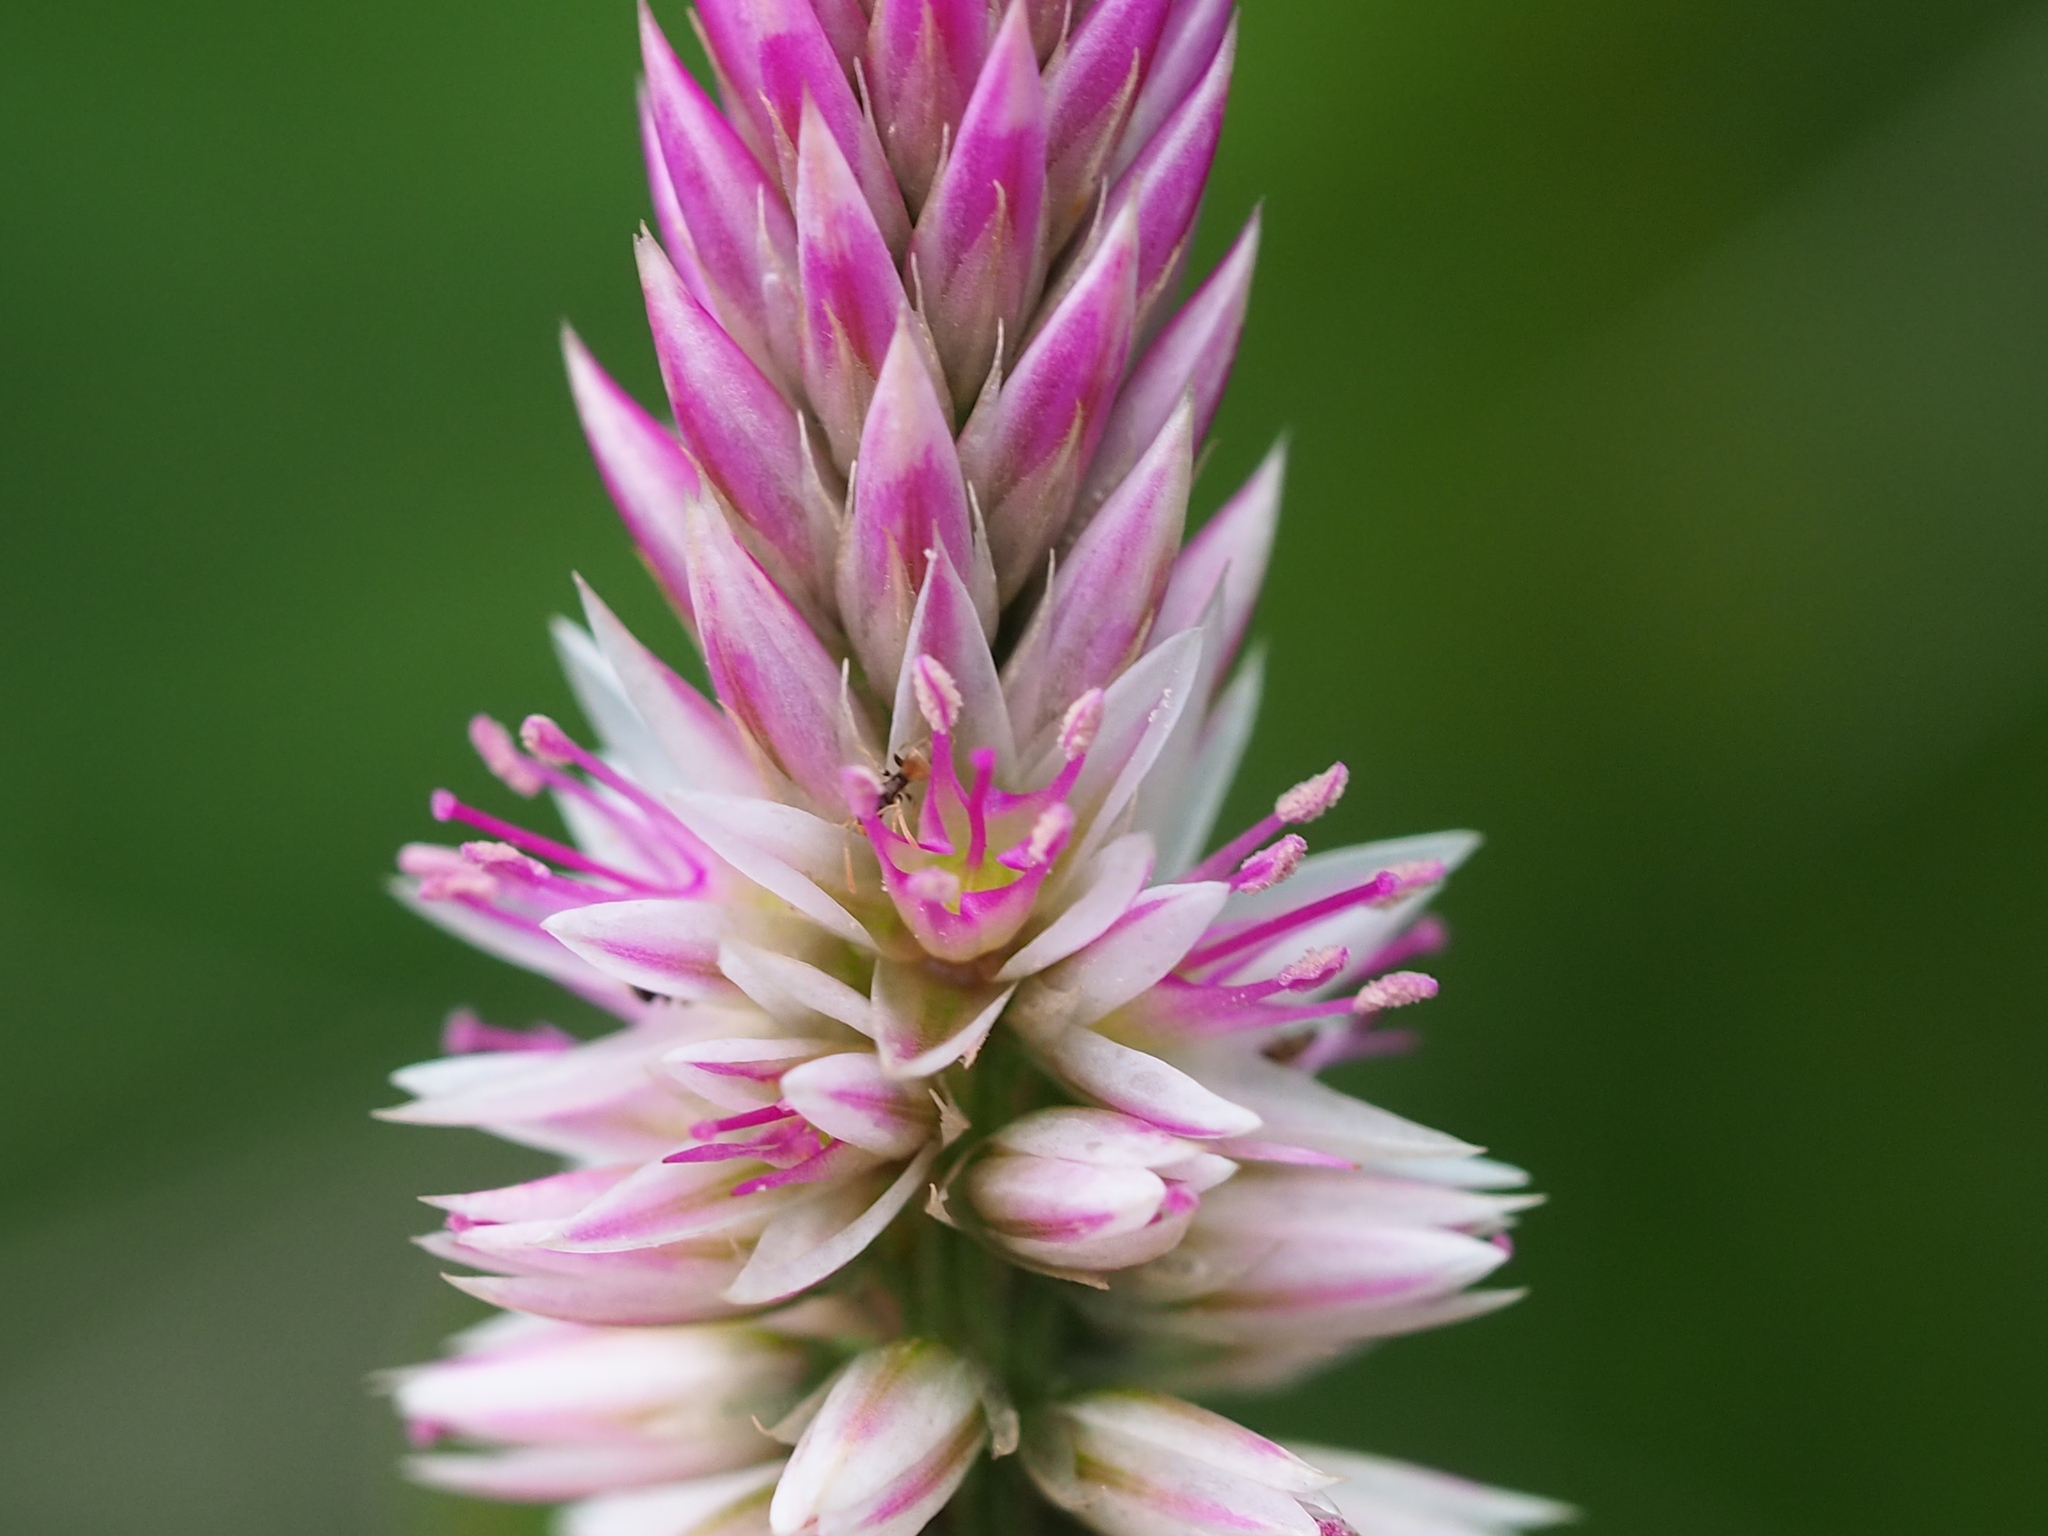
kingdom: Plantae
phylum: Tracheophyta
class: Magnoliopsida
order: Caryophyllales
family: Amaranthaceae
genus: Celosia
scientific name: Celosia argentea
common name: Feather cockscomb
